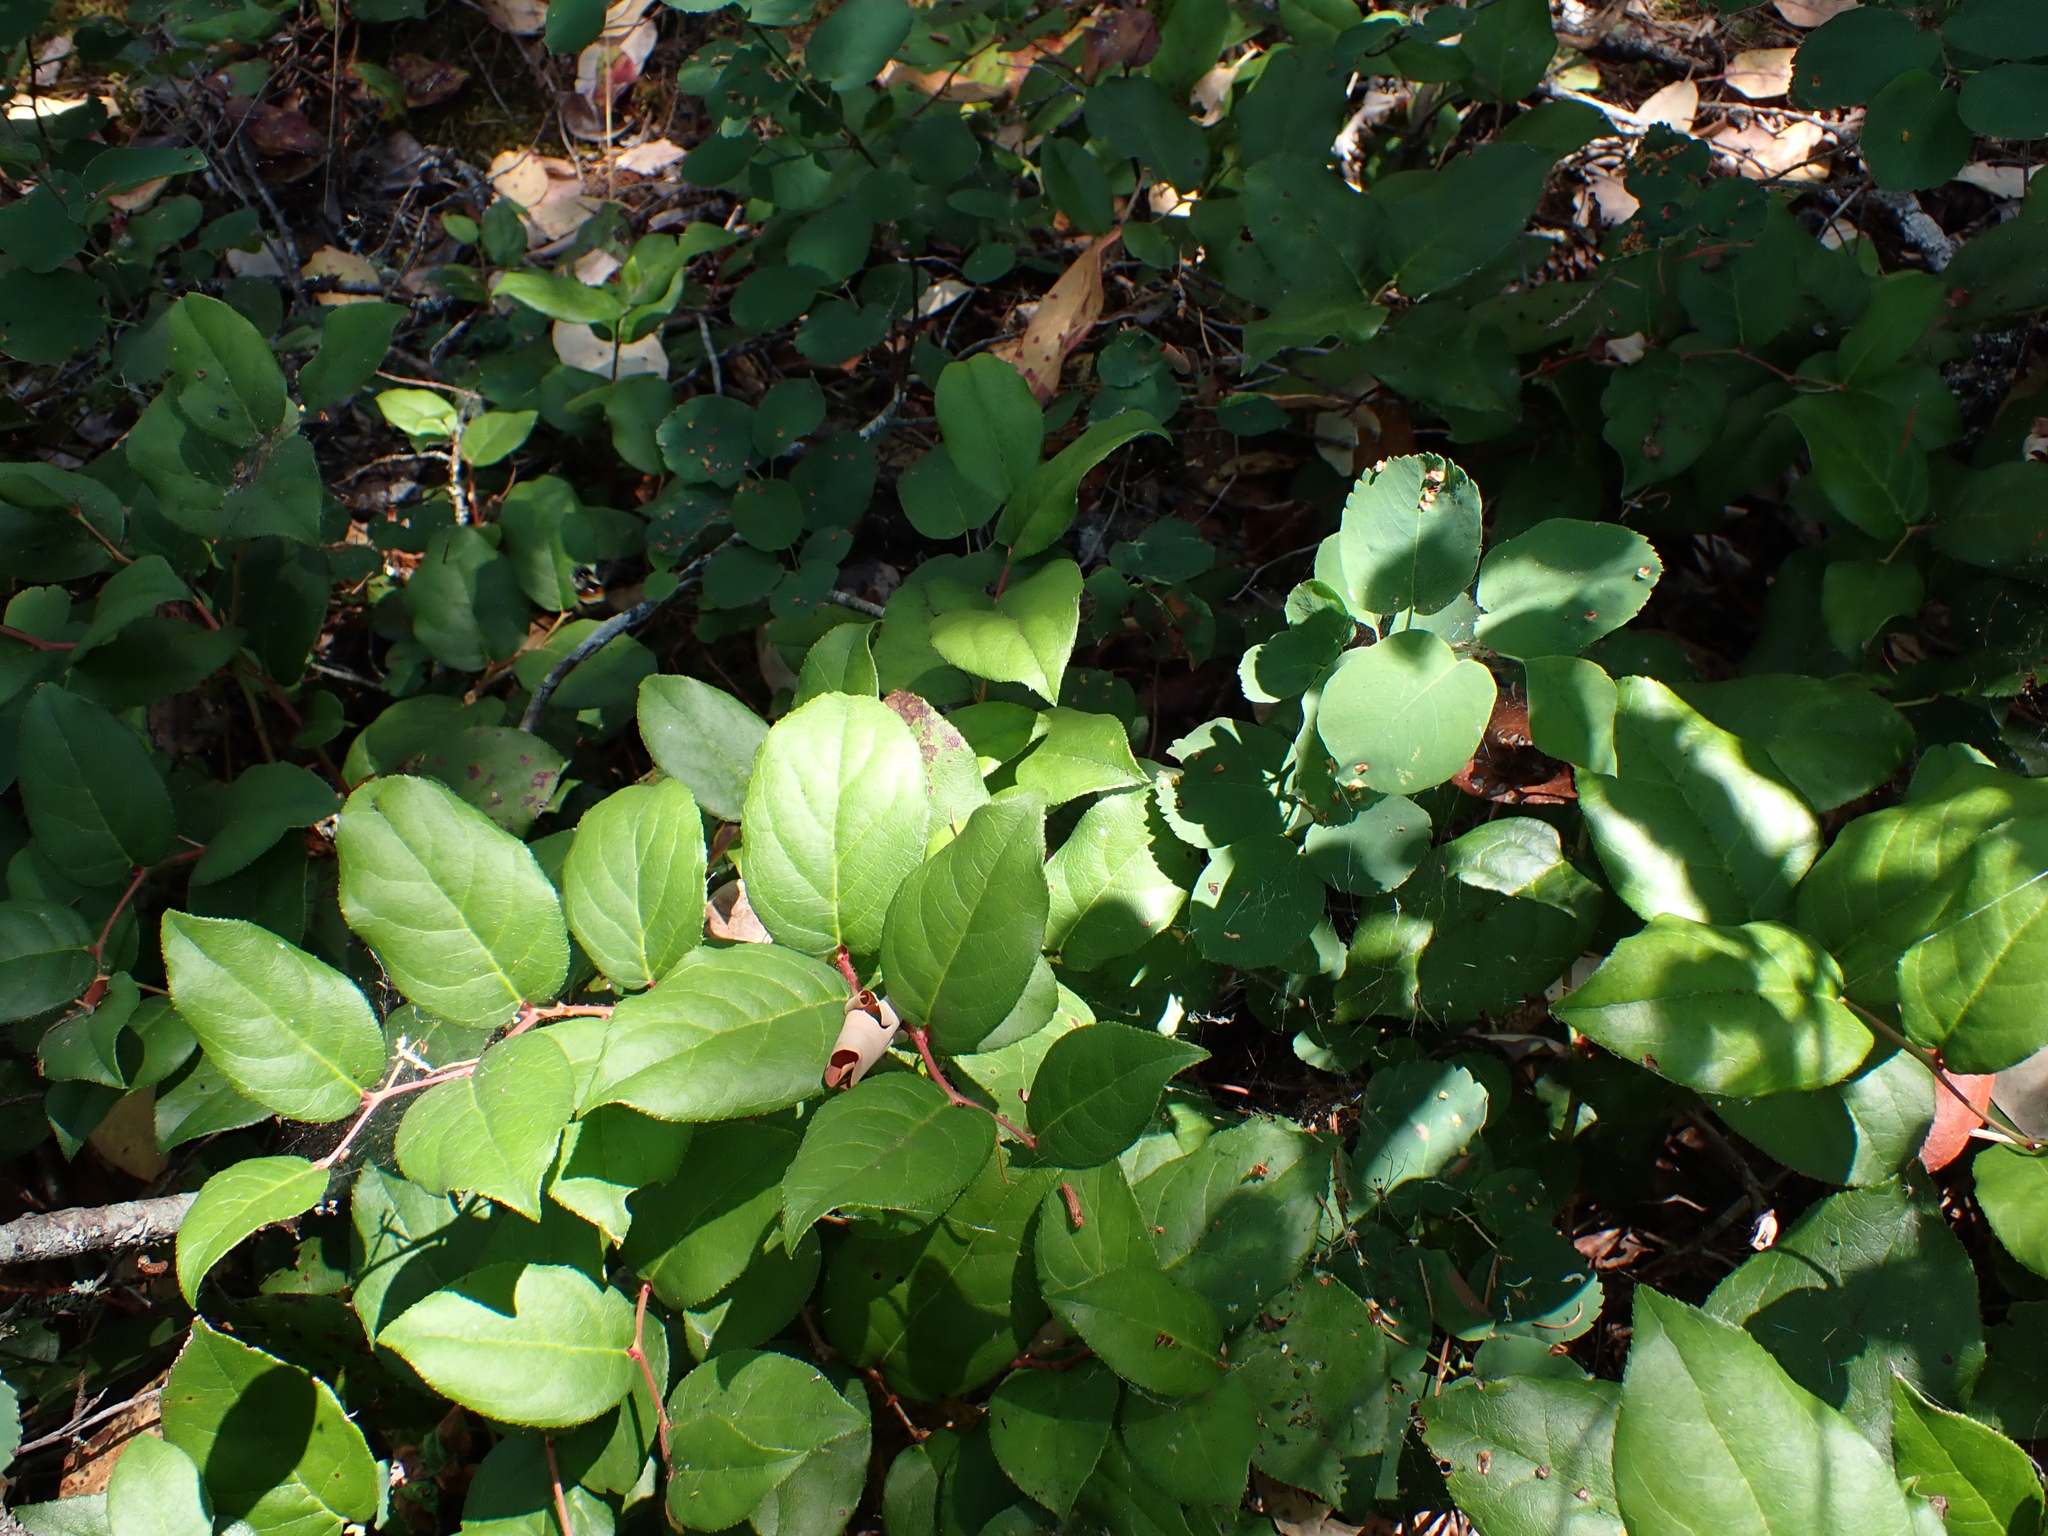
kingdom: Plantae
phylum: Tracheophyta
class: Magnoliopsida
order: Ericales
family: Ericaceae
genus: Gaultheria
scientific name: Gaultheria shallon
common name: Shallon
